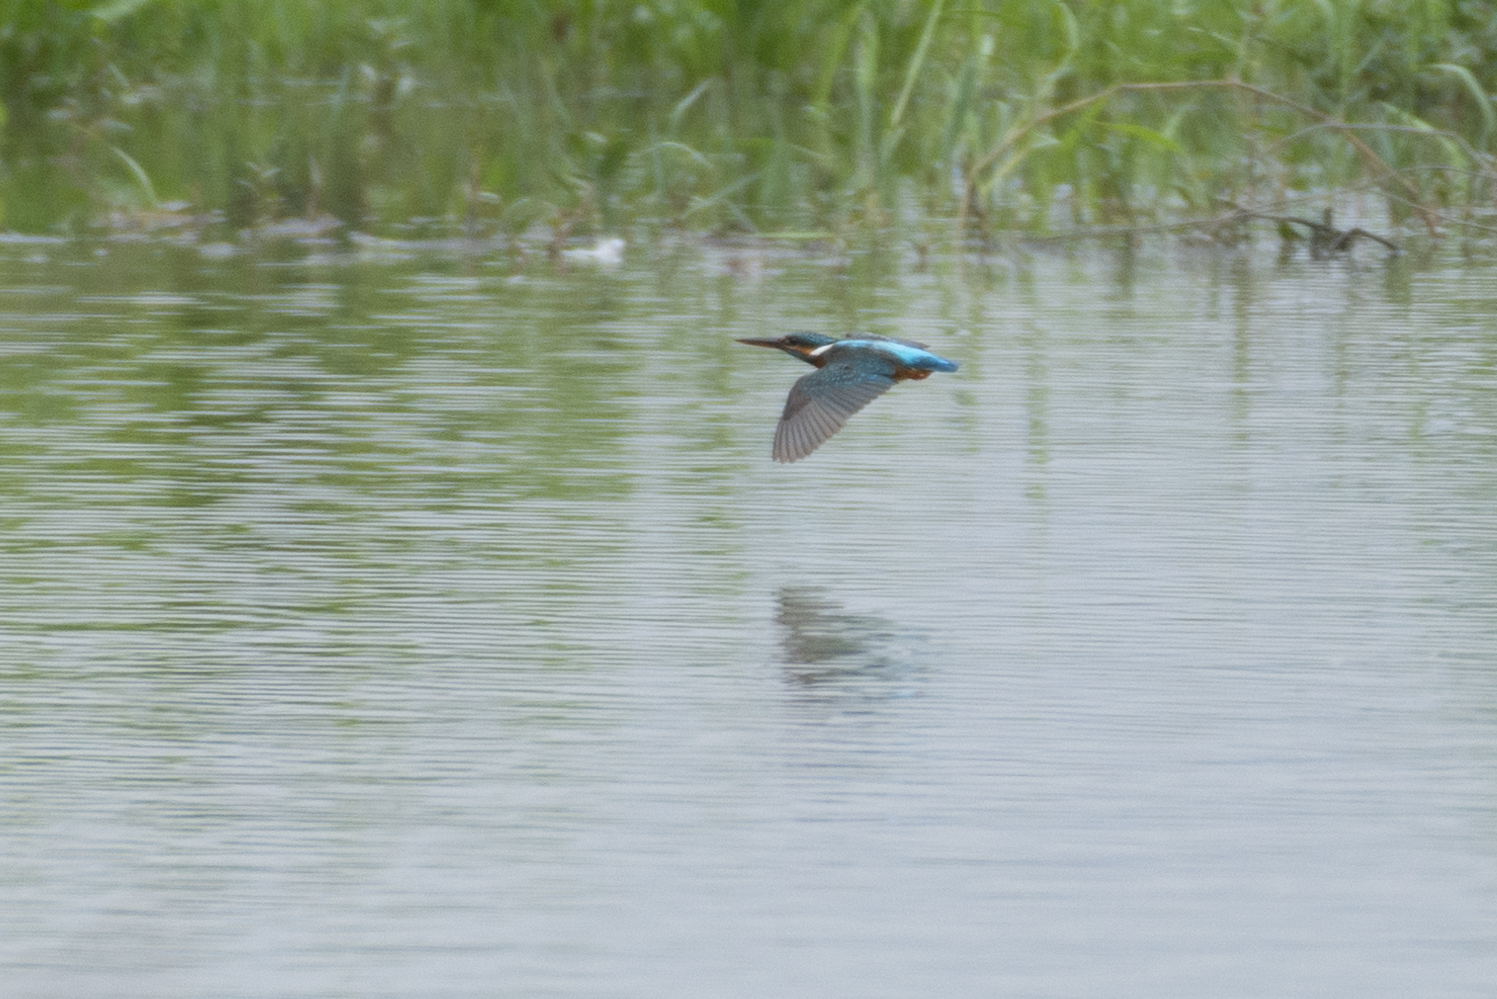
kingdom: Animalia
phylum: Chordata
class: Aves
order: Coraciiformes
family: Alcedinidae
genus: Alcedo
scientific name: Alcedo atthis
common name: Common kingfisher
